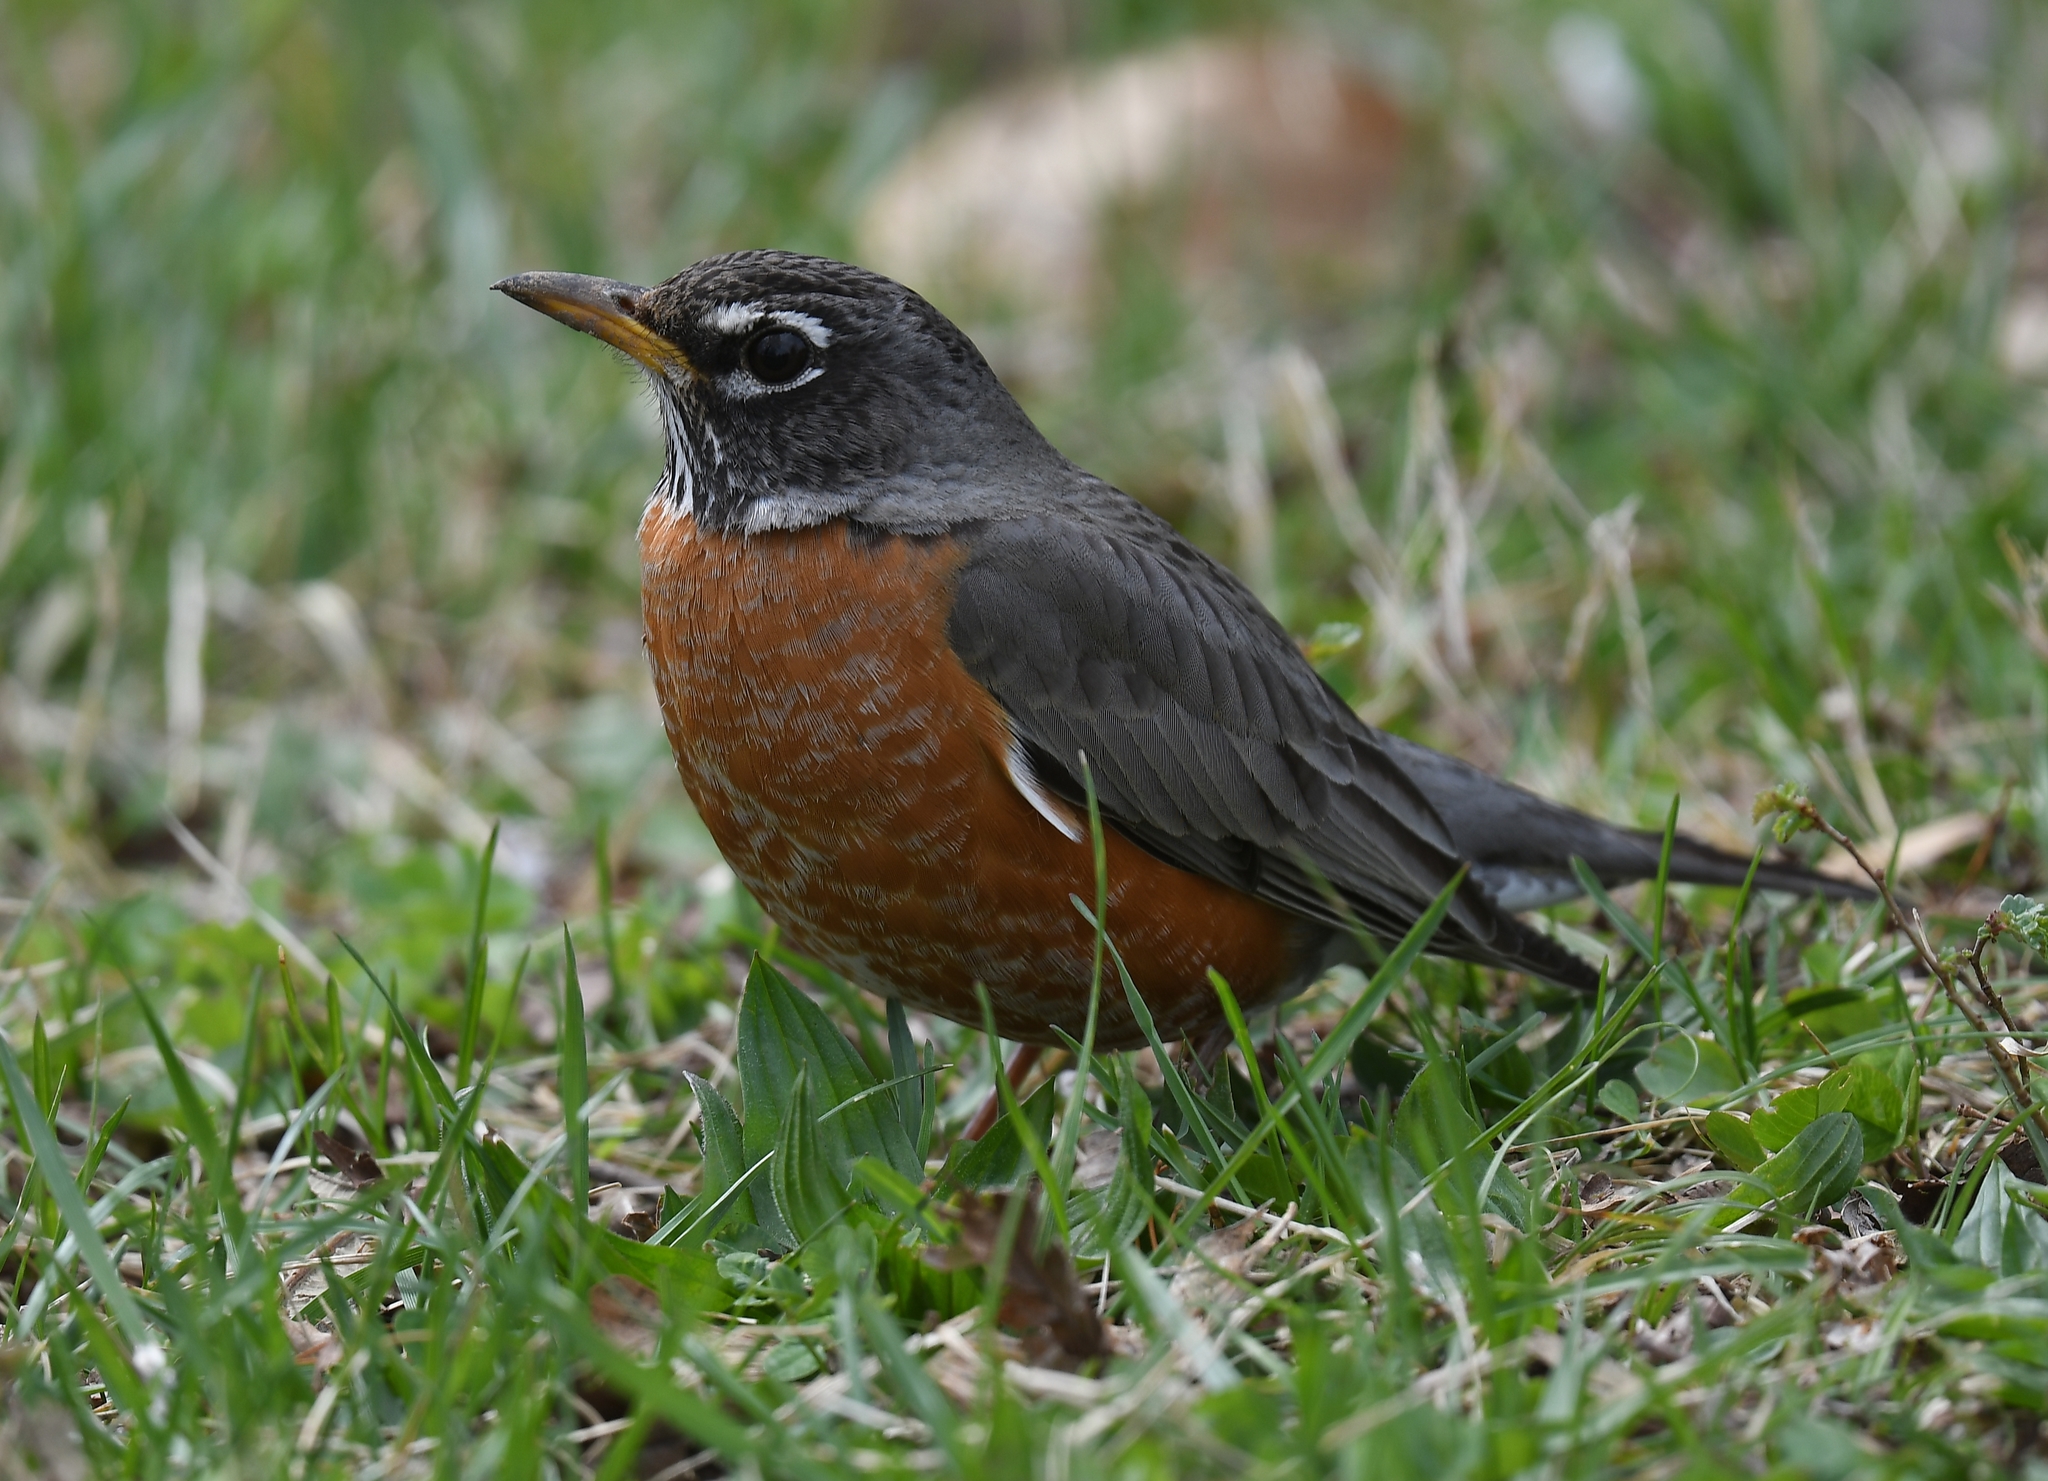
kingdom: Animalia
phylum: Chordata
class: Aves
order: Passeriformes
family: Turdidae
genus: Turdus
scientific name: Turdus migratorius
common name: American robin
